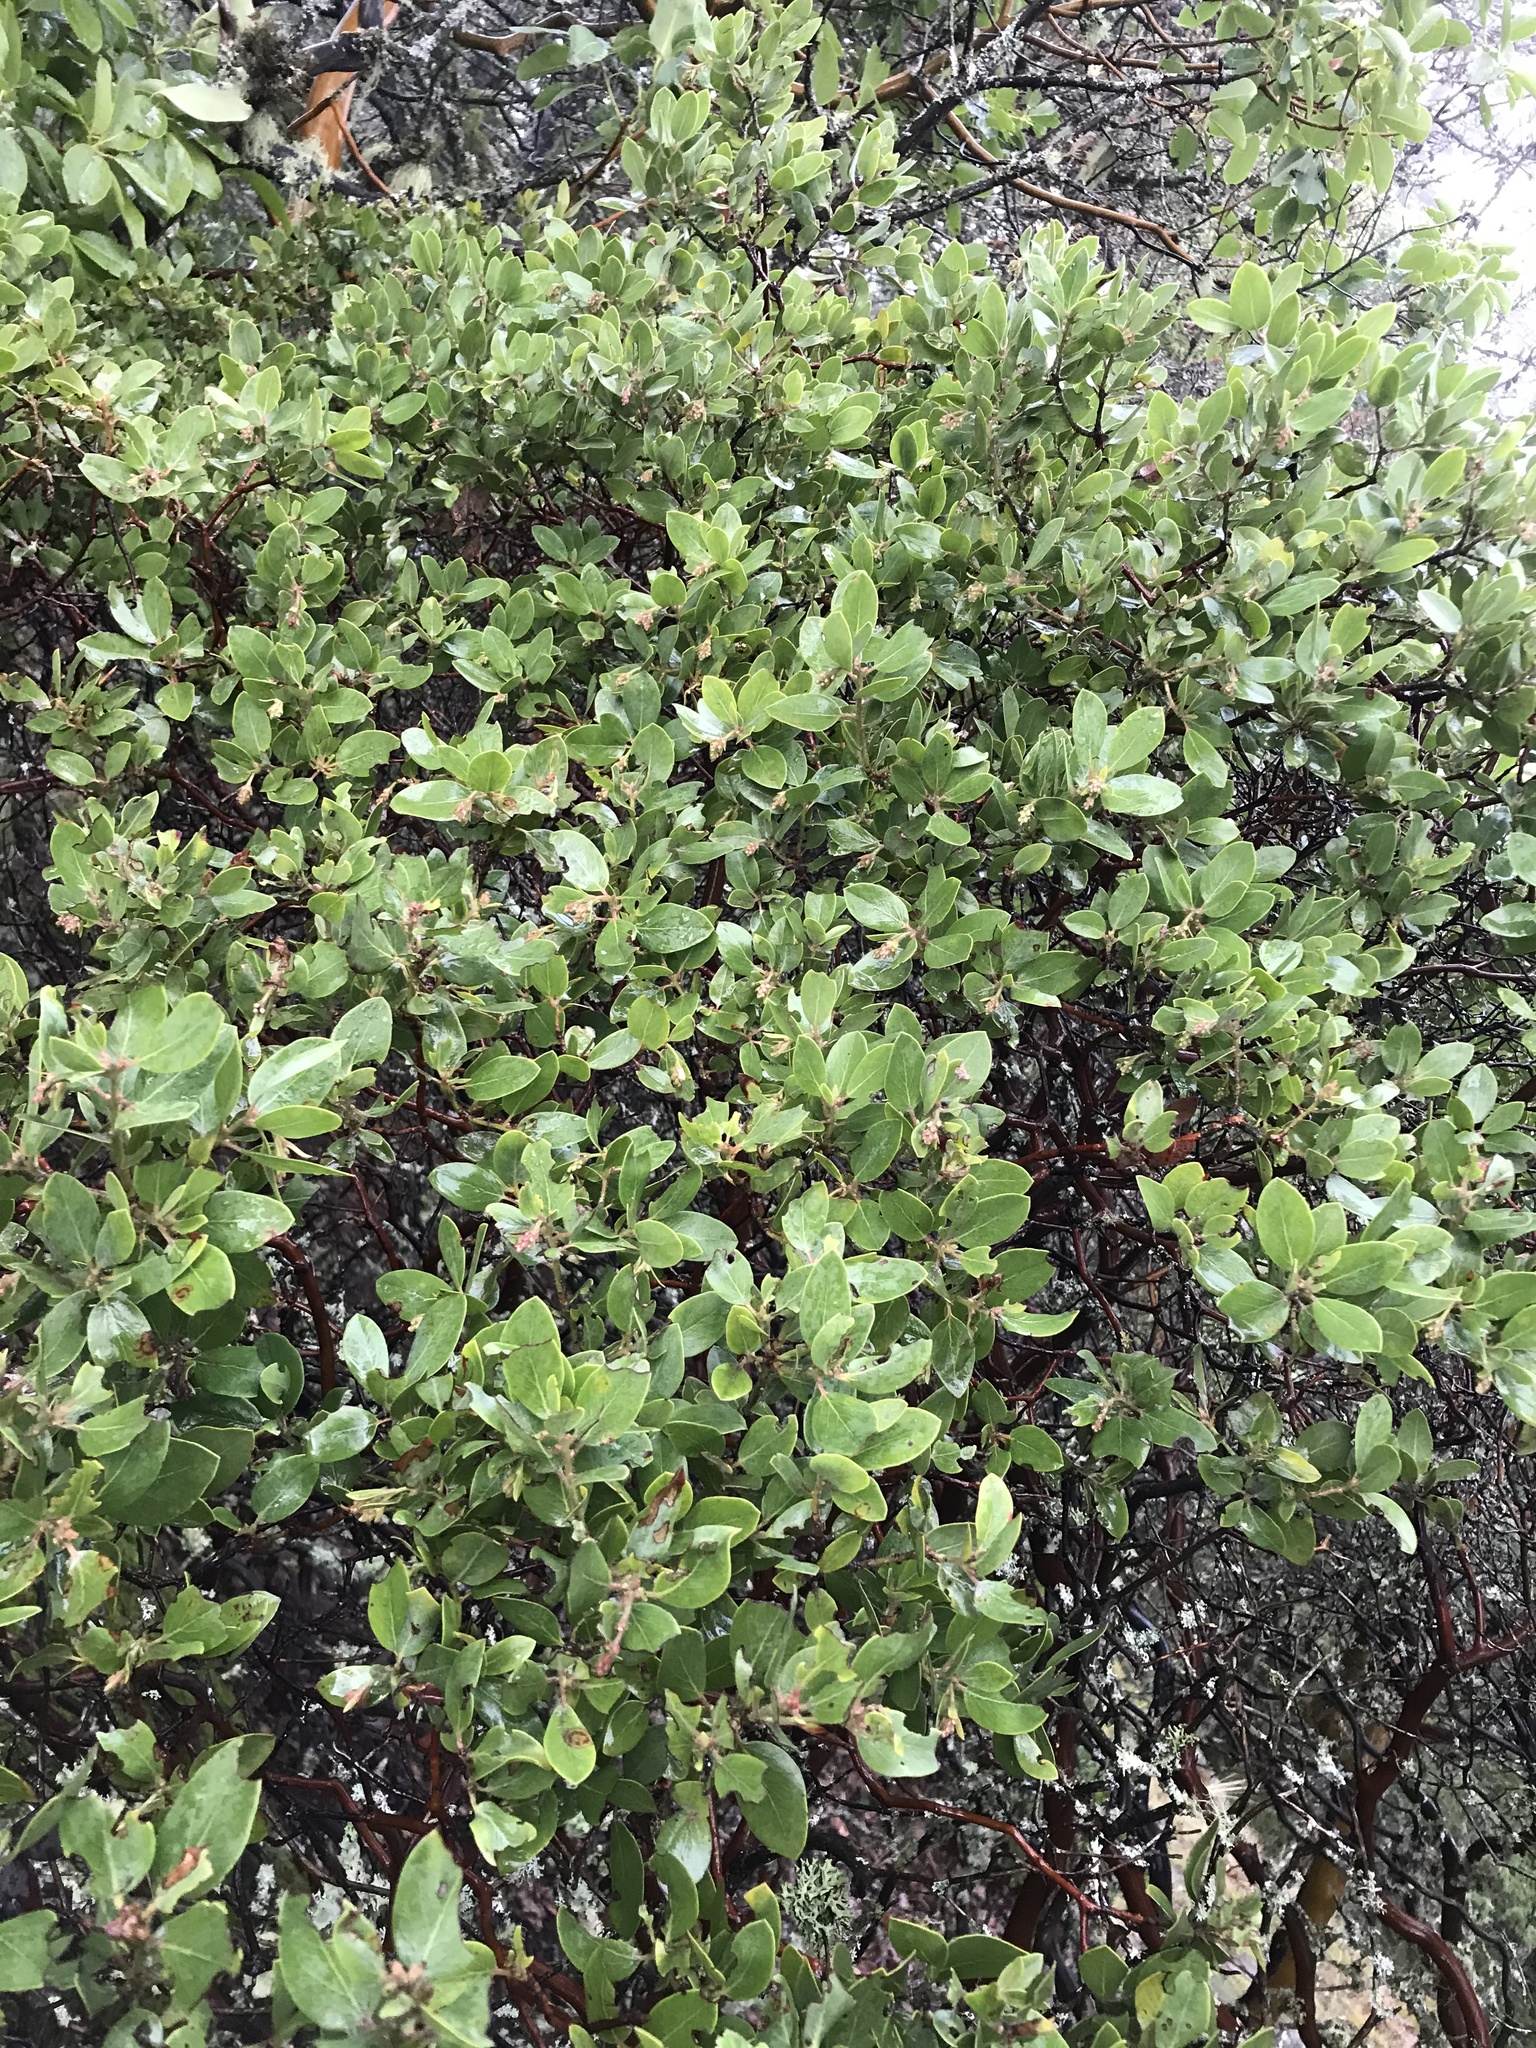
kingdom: Plantae
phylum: Tracheophyta
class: Magnoliopsida
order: Ericales
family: Ericaceae
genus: Arctostaphylos
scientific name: Arctostaphylos columbiana
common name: Bristly bearberry
